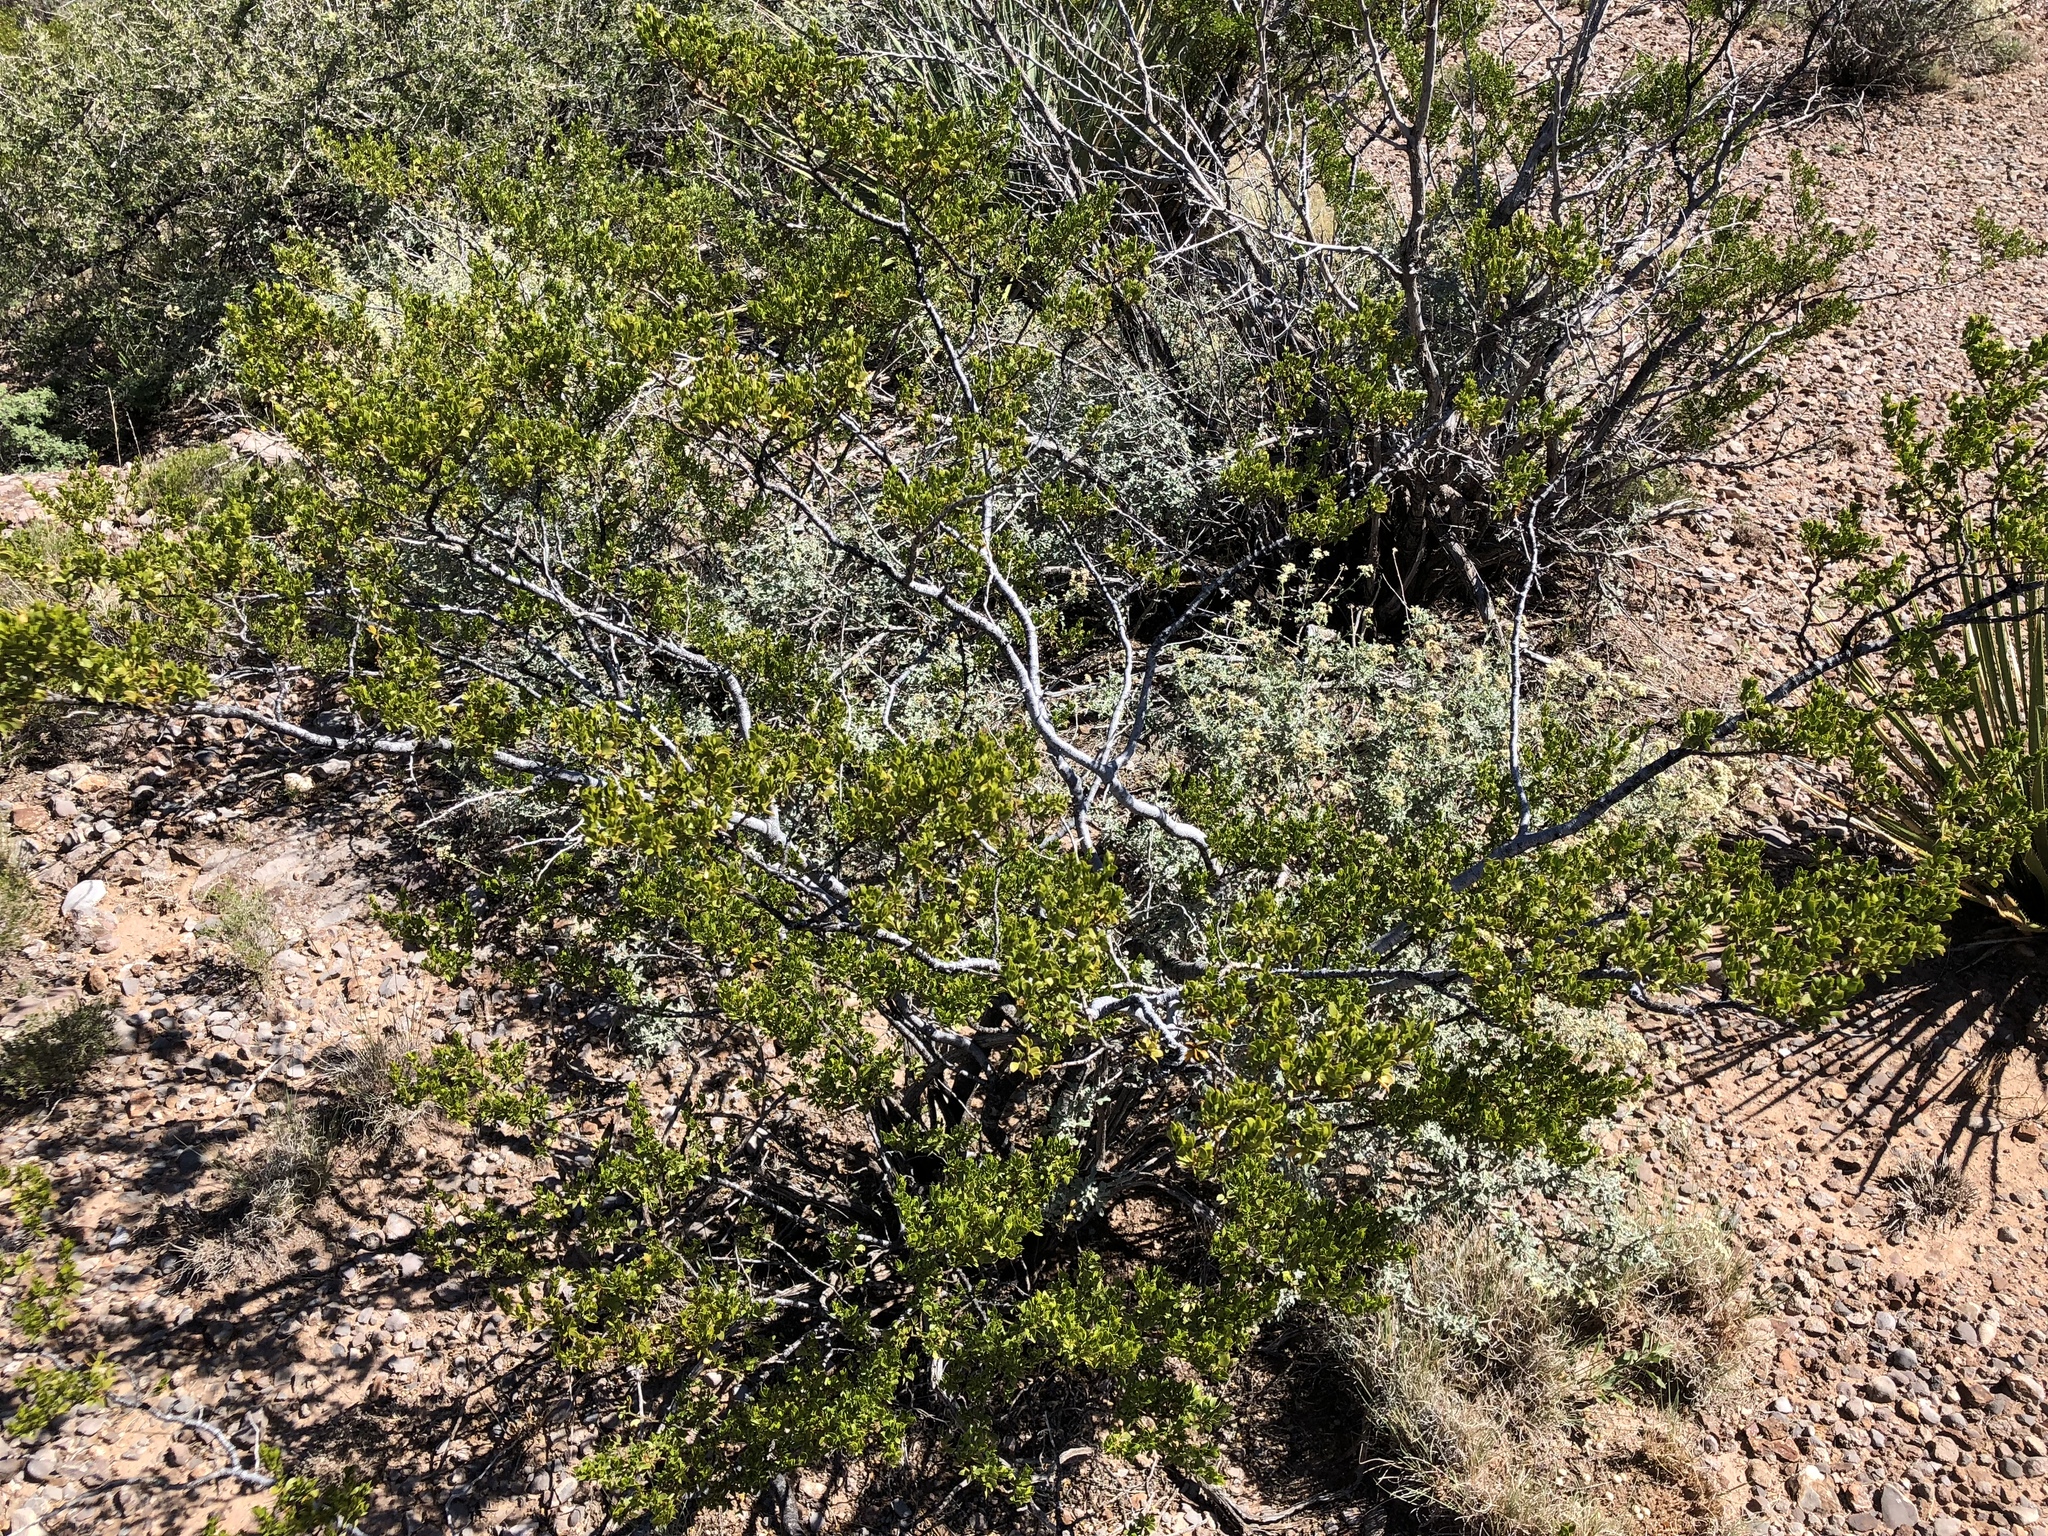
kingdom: Plantae
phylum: Tracheophyta
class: Magnoliopsida
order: Zygophyllales
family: Zygophyllaceae
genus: Larrea
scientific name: Larrea tridentata
